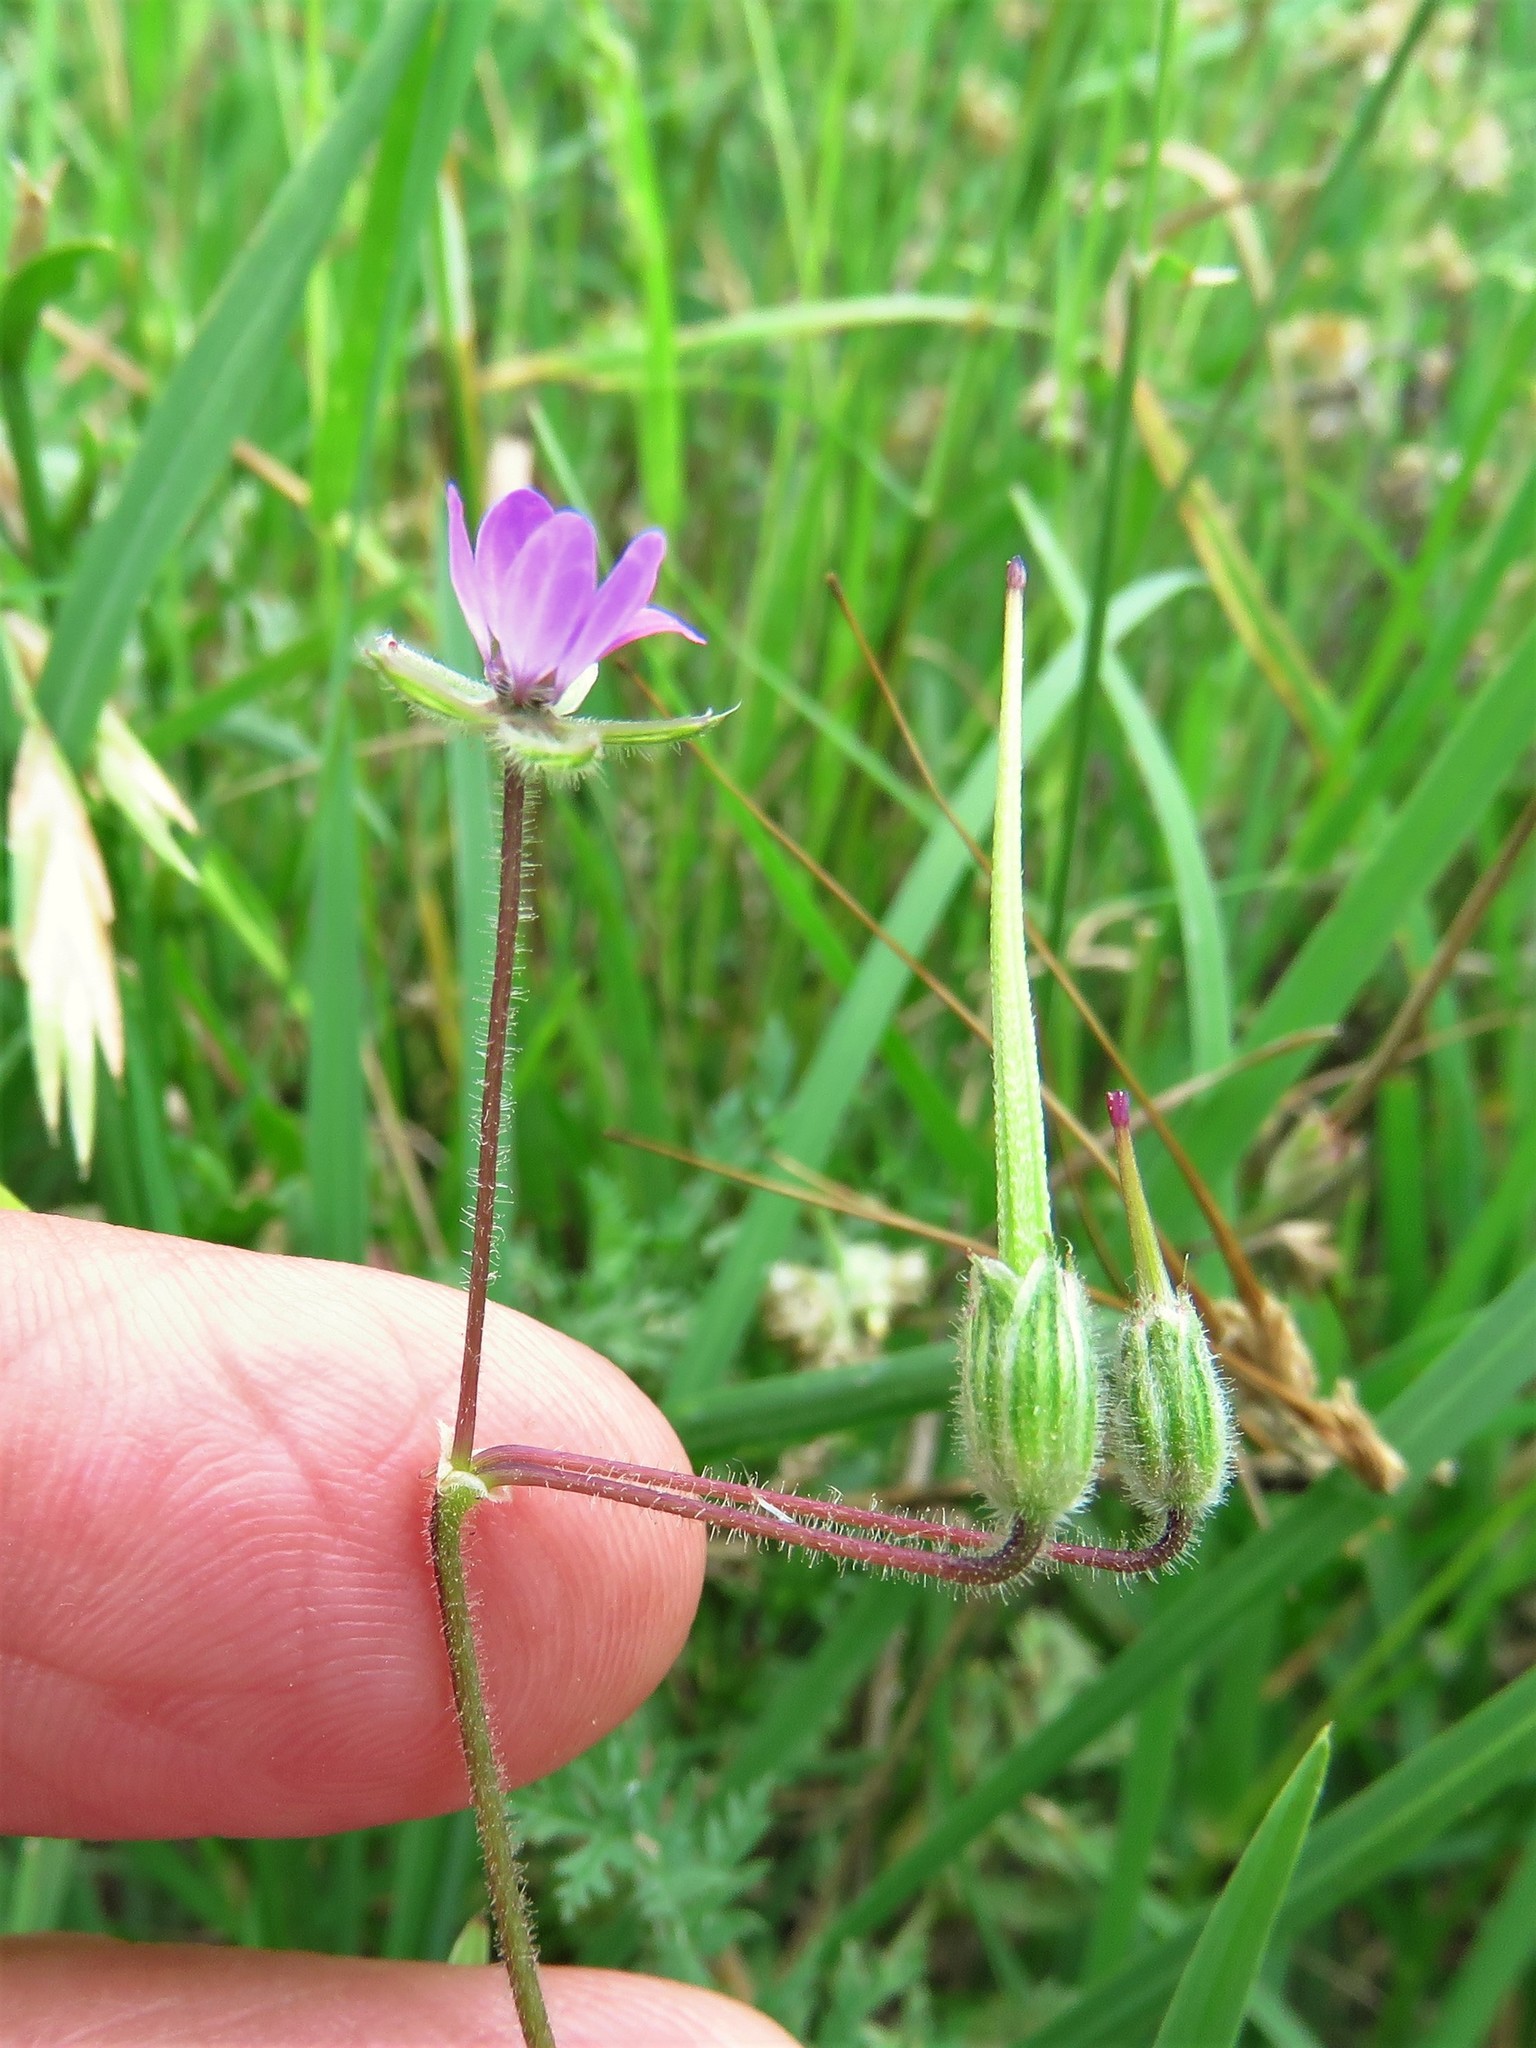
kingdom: Plantae
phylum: Tracheophyta
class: Magnoliopsida
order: Geraniales
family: Geraniaceae
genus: Erodium
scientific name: Erodium cicutarium
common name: Common stork's-bill
